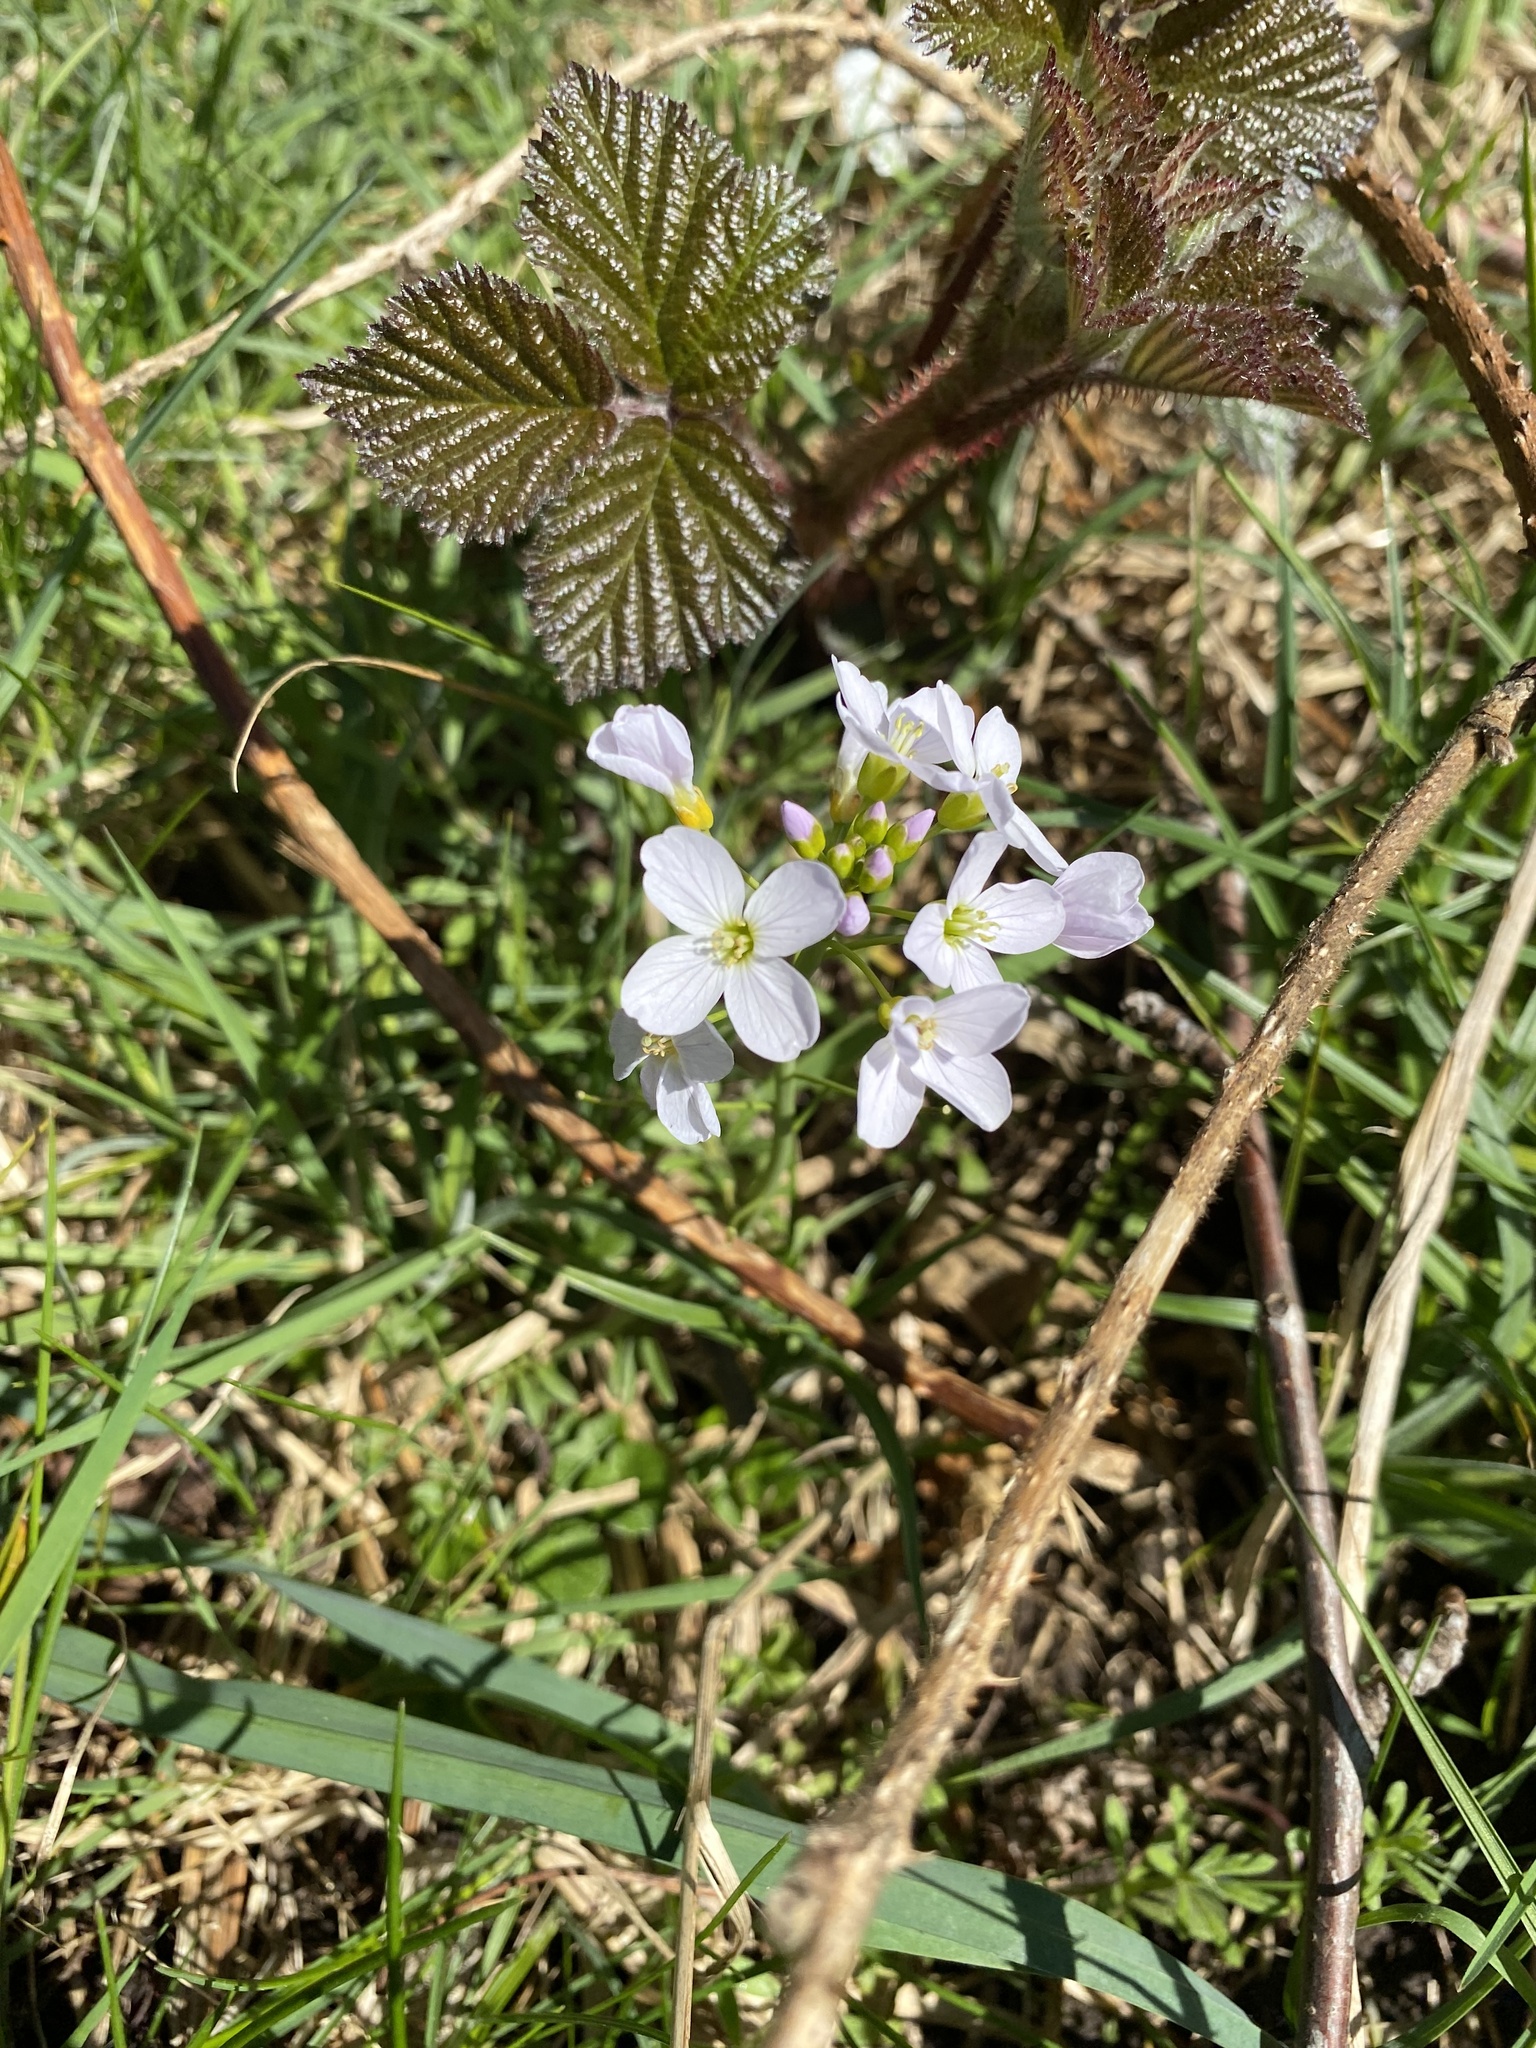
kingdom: Plantae
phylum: Tracheophyta
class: Magnoliopsida
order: Brassicales
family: Brassicaceae
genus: Cardamine
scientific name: Cardamine pratensis
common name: Cuckoo flower
